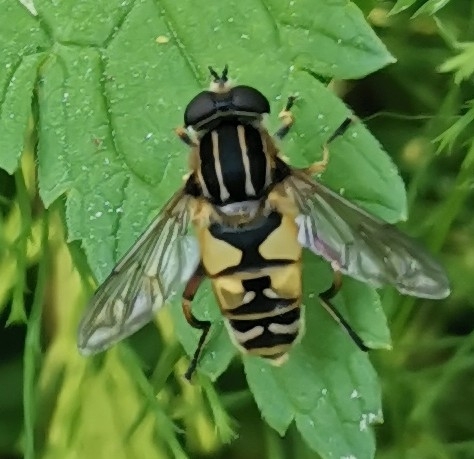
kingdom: Animalia
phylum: Arthropoda
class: Insecta
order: Diptera
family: Syrphidae
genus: Helophilus
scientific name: Helophilus pendulus
